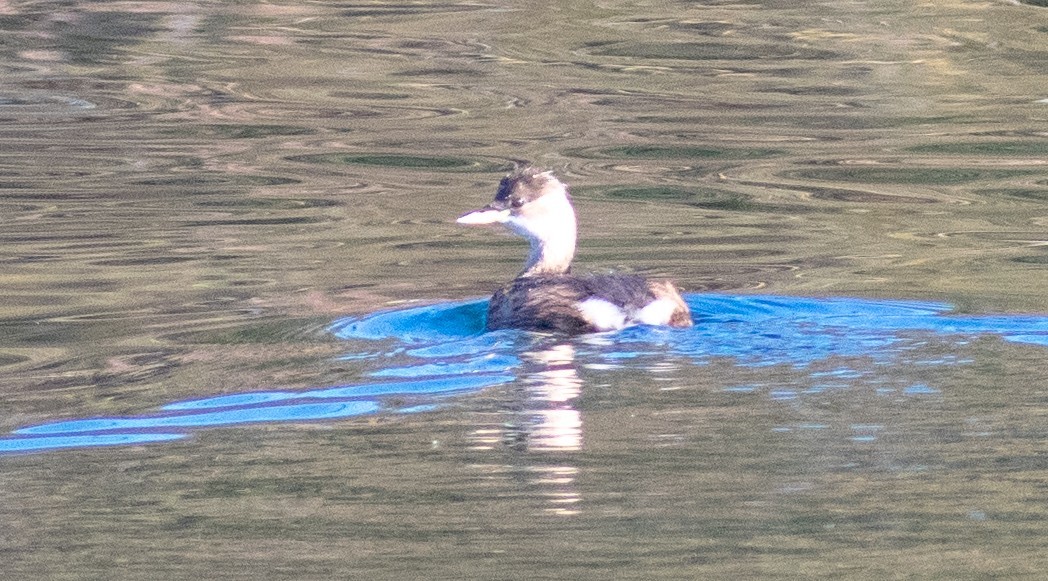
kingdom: Animalia
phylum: Chordata
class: Aves
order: Podicipediformes
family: Podicipedidae
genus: Tachybaptus
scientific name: Tachybaptus ruficollis
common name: Little grebe
